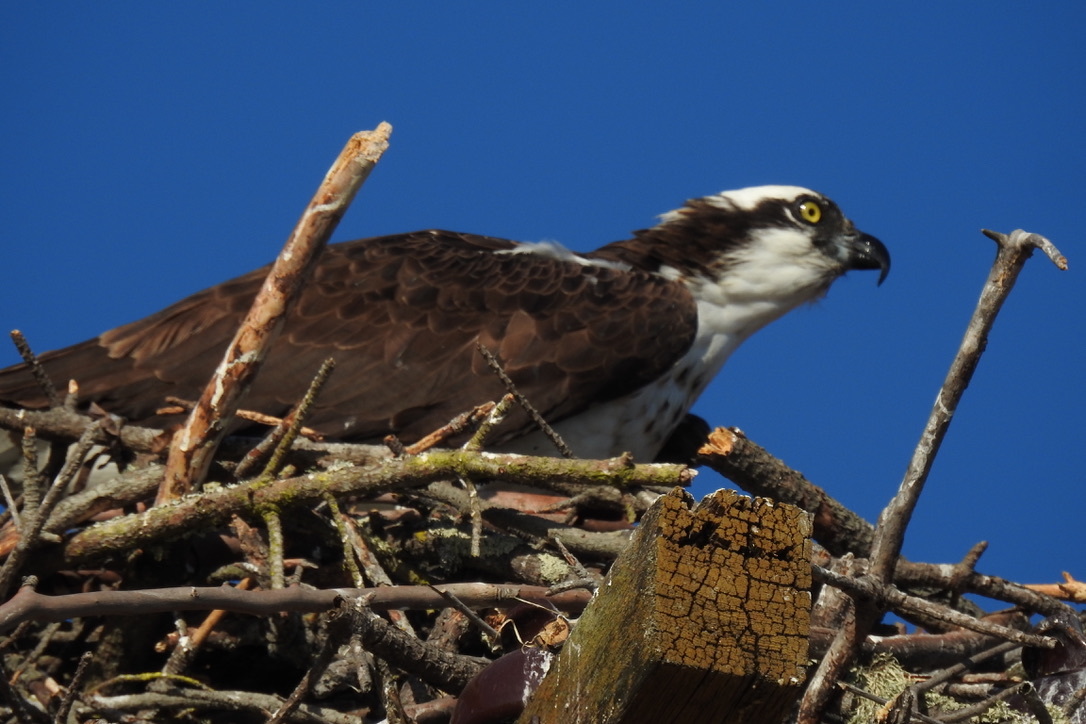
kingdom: Animalia
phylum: Chordata
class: Aves
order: Accipitriformes
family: Pandionidae
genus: Pandion
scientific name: Pandion haliaetus
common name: Osprey
